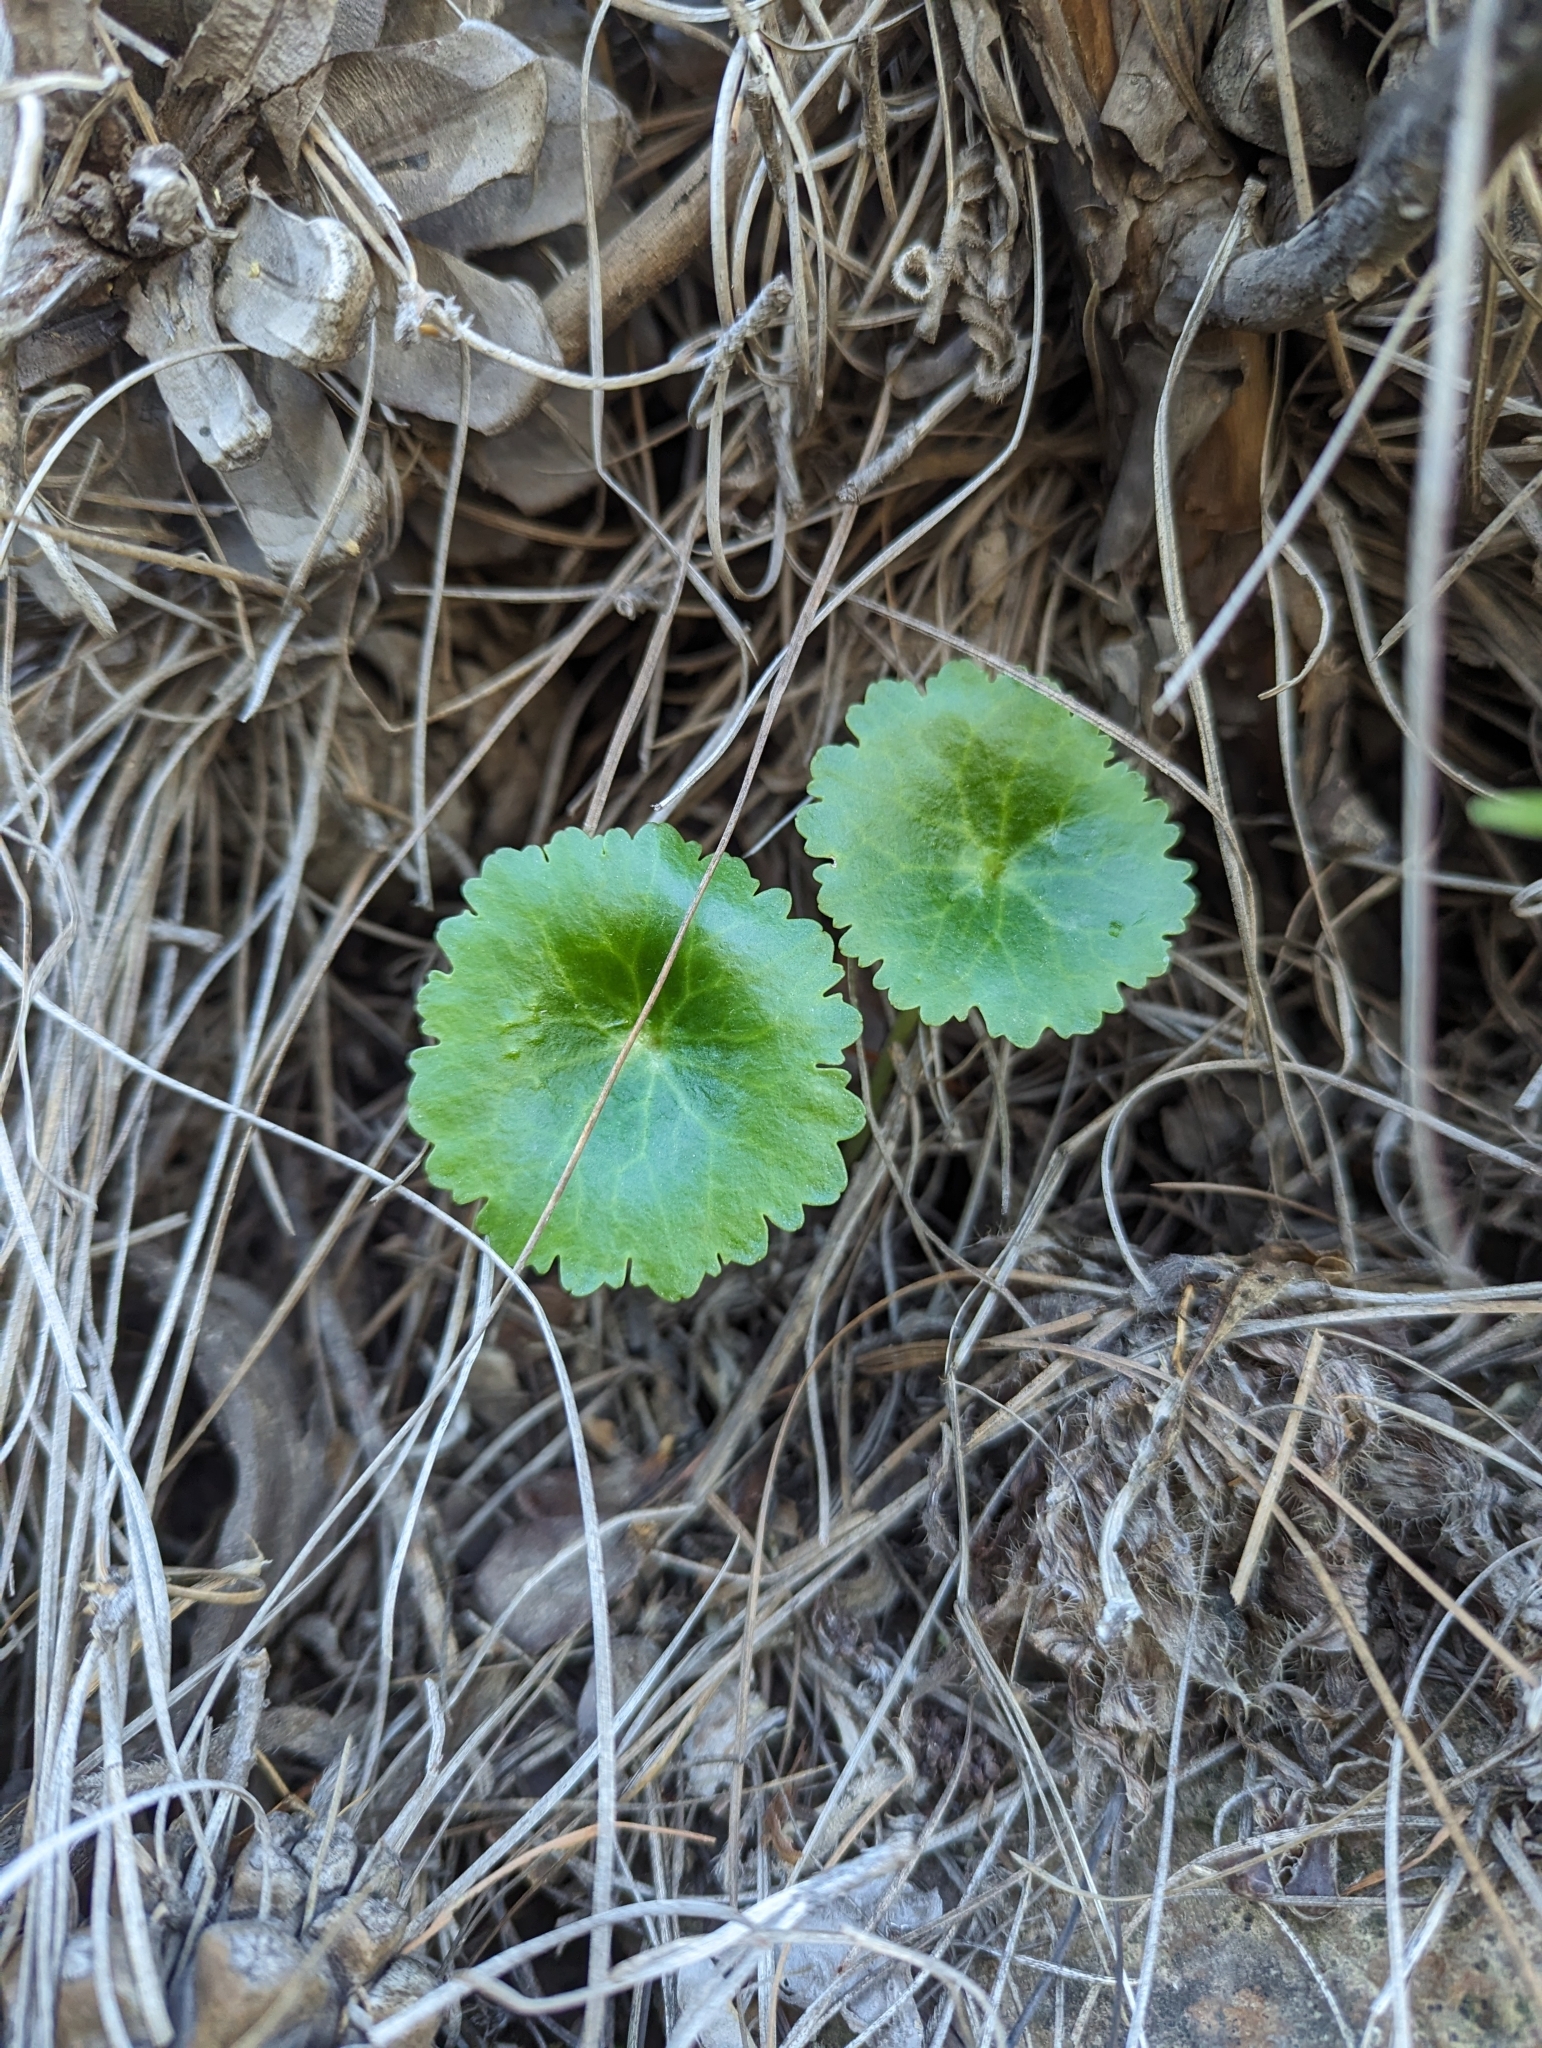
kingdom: Plantae
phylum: Tracheophyta
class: Magnoliopsida
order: Saxifragales
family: Crassulaceae
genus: Umbilicus
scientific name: Umbilicus horizontalis
